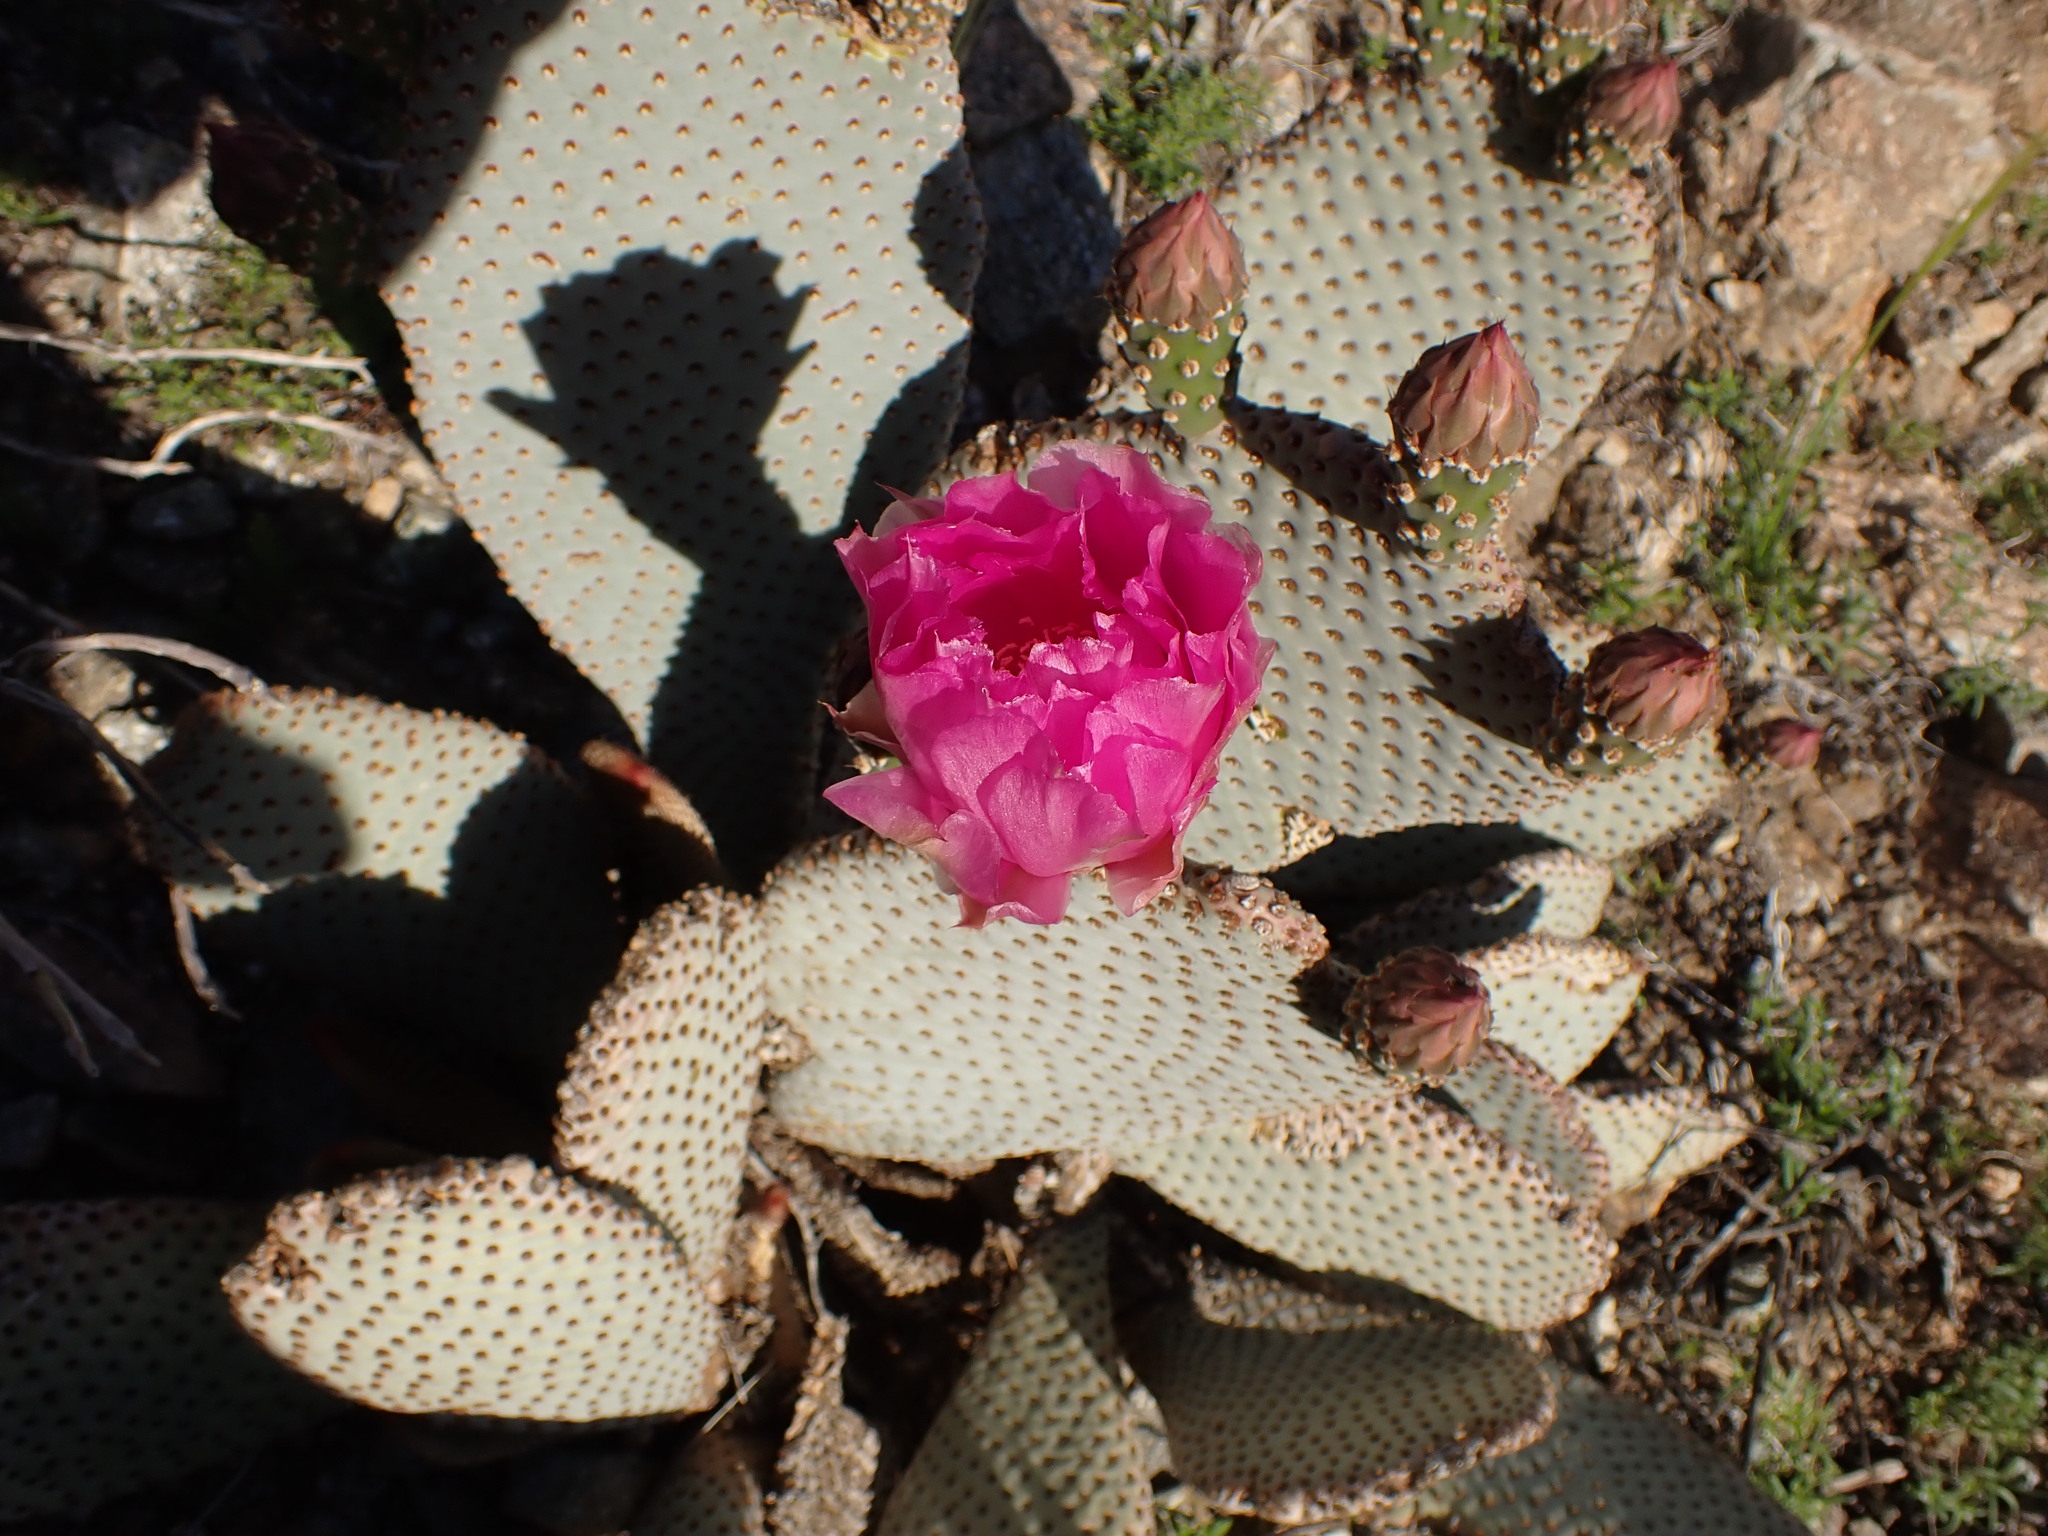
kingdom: Plantae
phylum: Tracheophyta
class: Magnoliopsida
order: Caryophyllales
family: Cactaceae
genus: Opuntia
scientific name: Opuntia basilaris
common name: Beavertail prickly-pear
